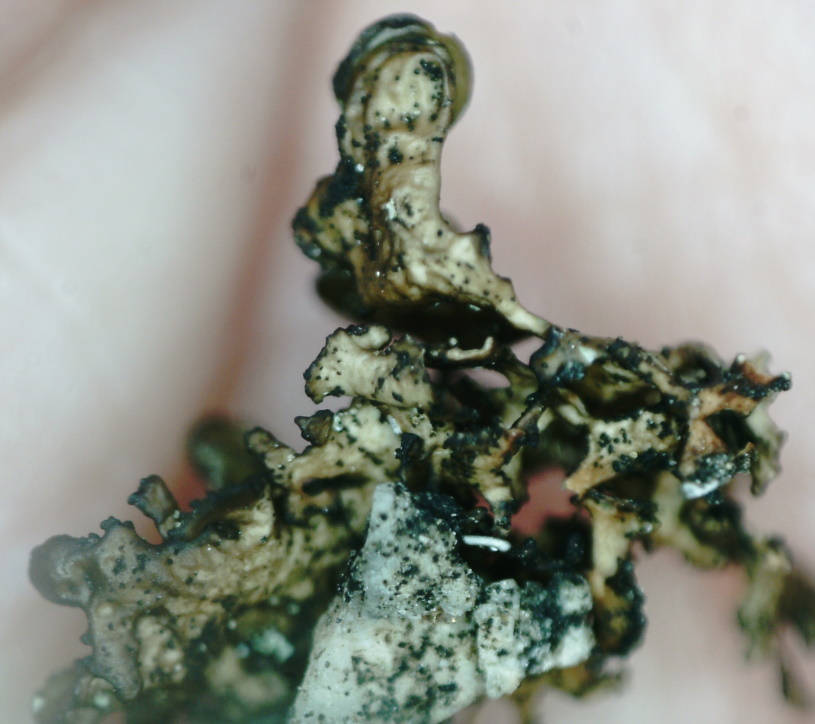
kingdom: Fungi
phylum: Ascomycota
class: Lecanoromycetes
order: Lecanorales
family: Parmeliaceae
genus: Melanelia
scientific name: Melanelia commixta
